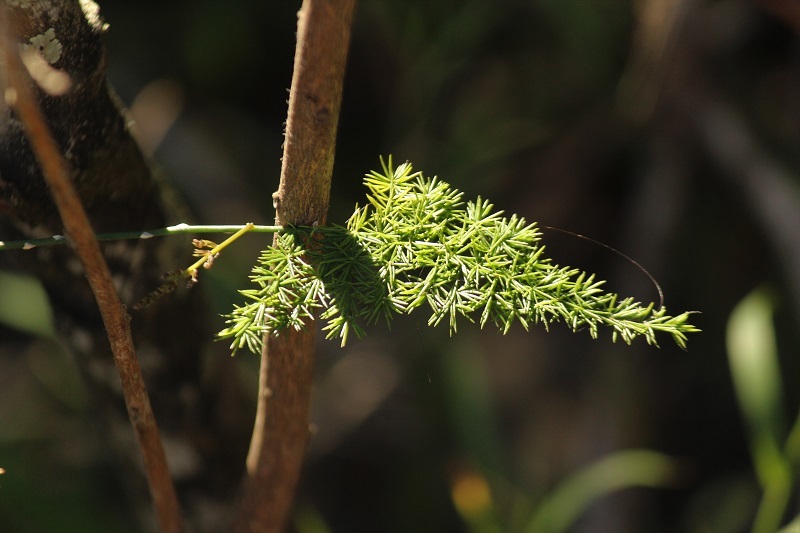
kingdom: Plantae
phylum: Tracheophyta
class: Liliopsida
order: Asparagales
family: Asparagaceae
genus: Asparagus
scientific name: Asparagus setaceus
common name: Common asparagus fern
